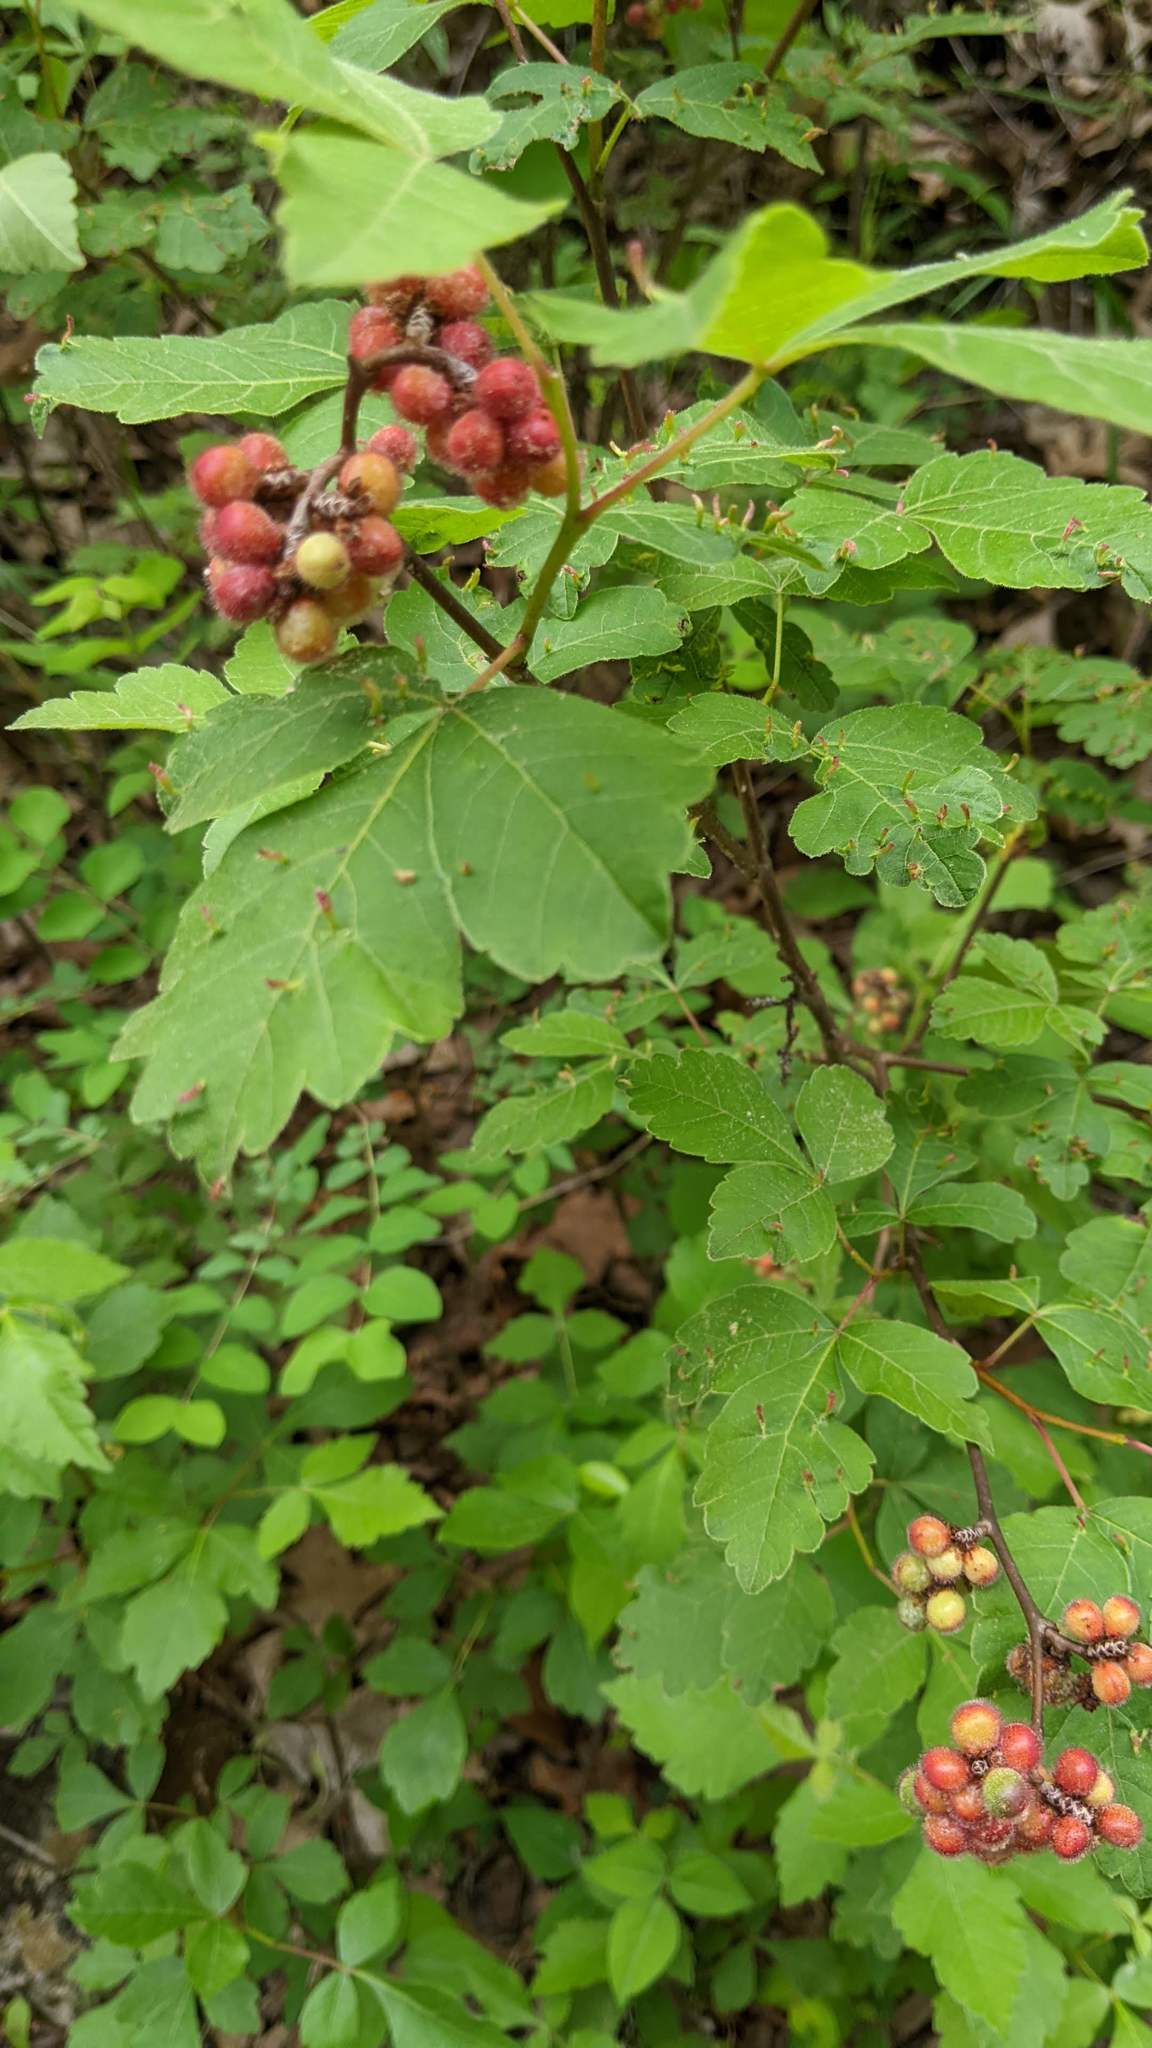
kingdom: Plantae
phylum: Tracheophyta
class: Magnoliopsida
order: Sapindales
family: Anacardiaceae
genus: Rhus
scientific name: Rhus aromatica
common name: Aromatic sumac
